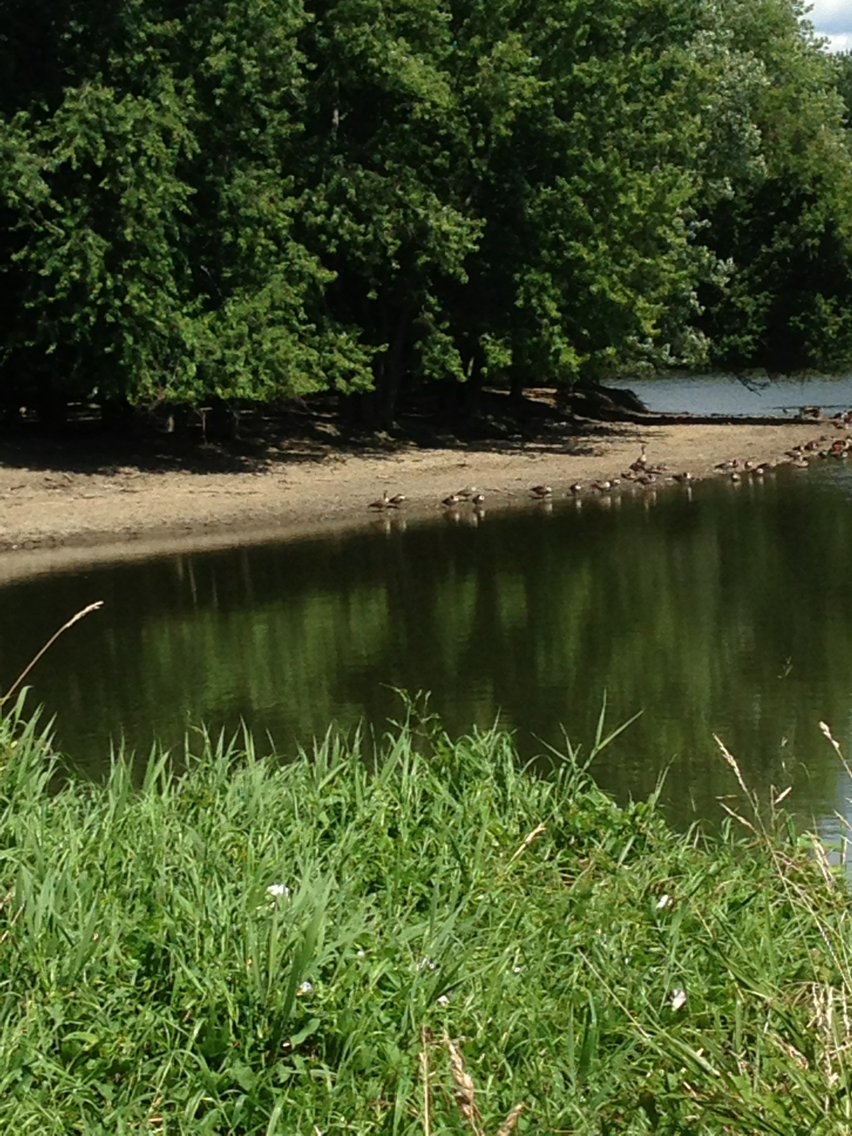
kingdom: Animalia
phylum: Chordata
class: Aves
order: Anseriformes
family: Anatidae
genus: Branta
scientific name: Branta canadensis
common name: Canada goose
